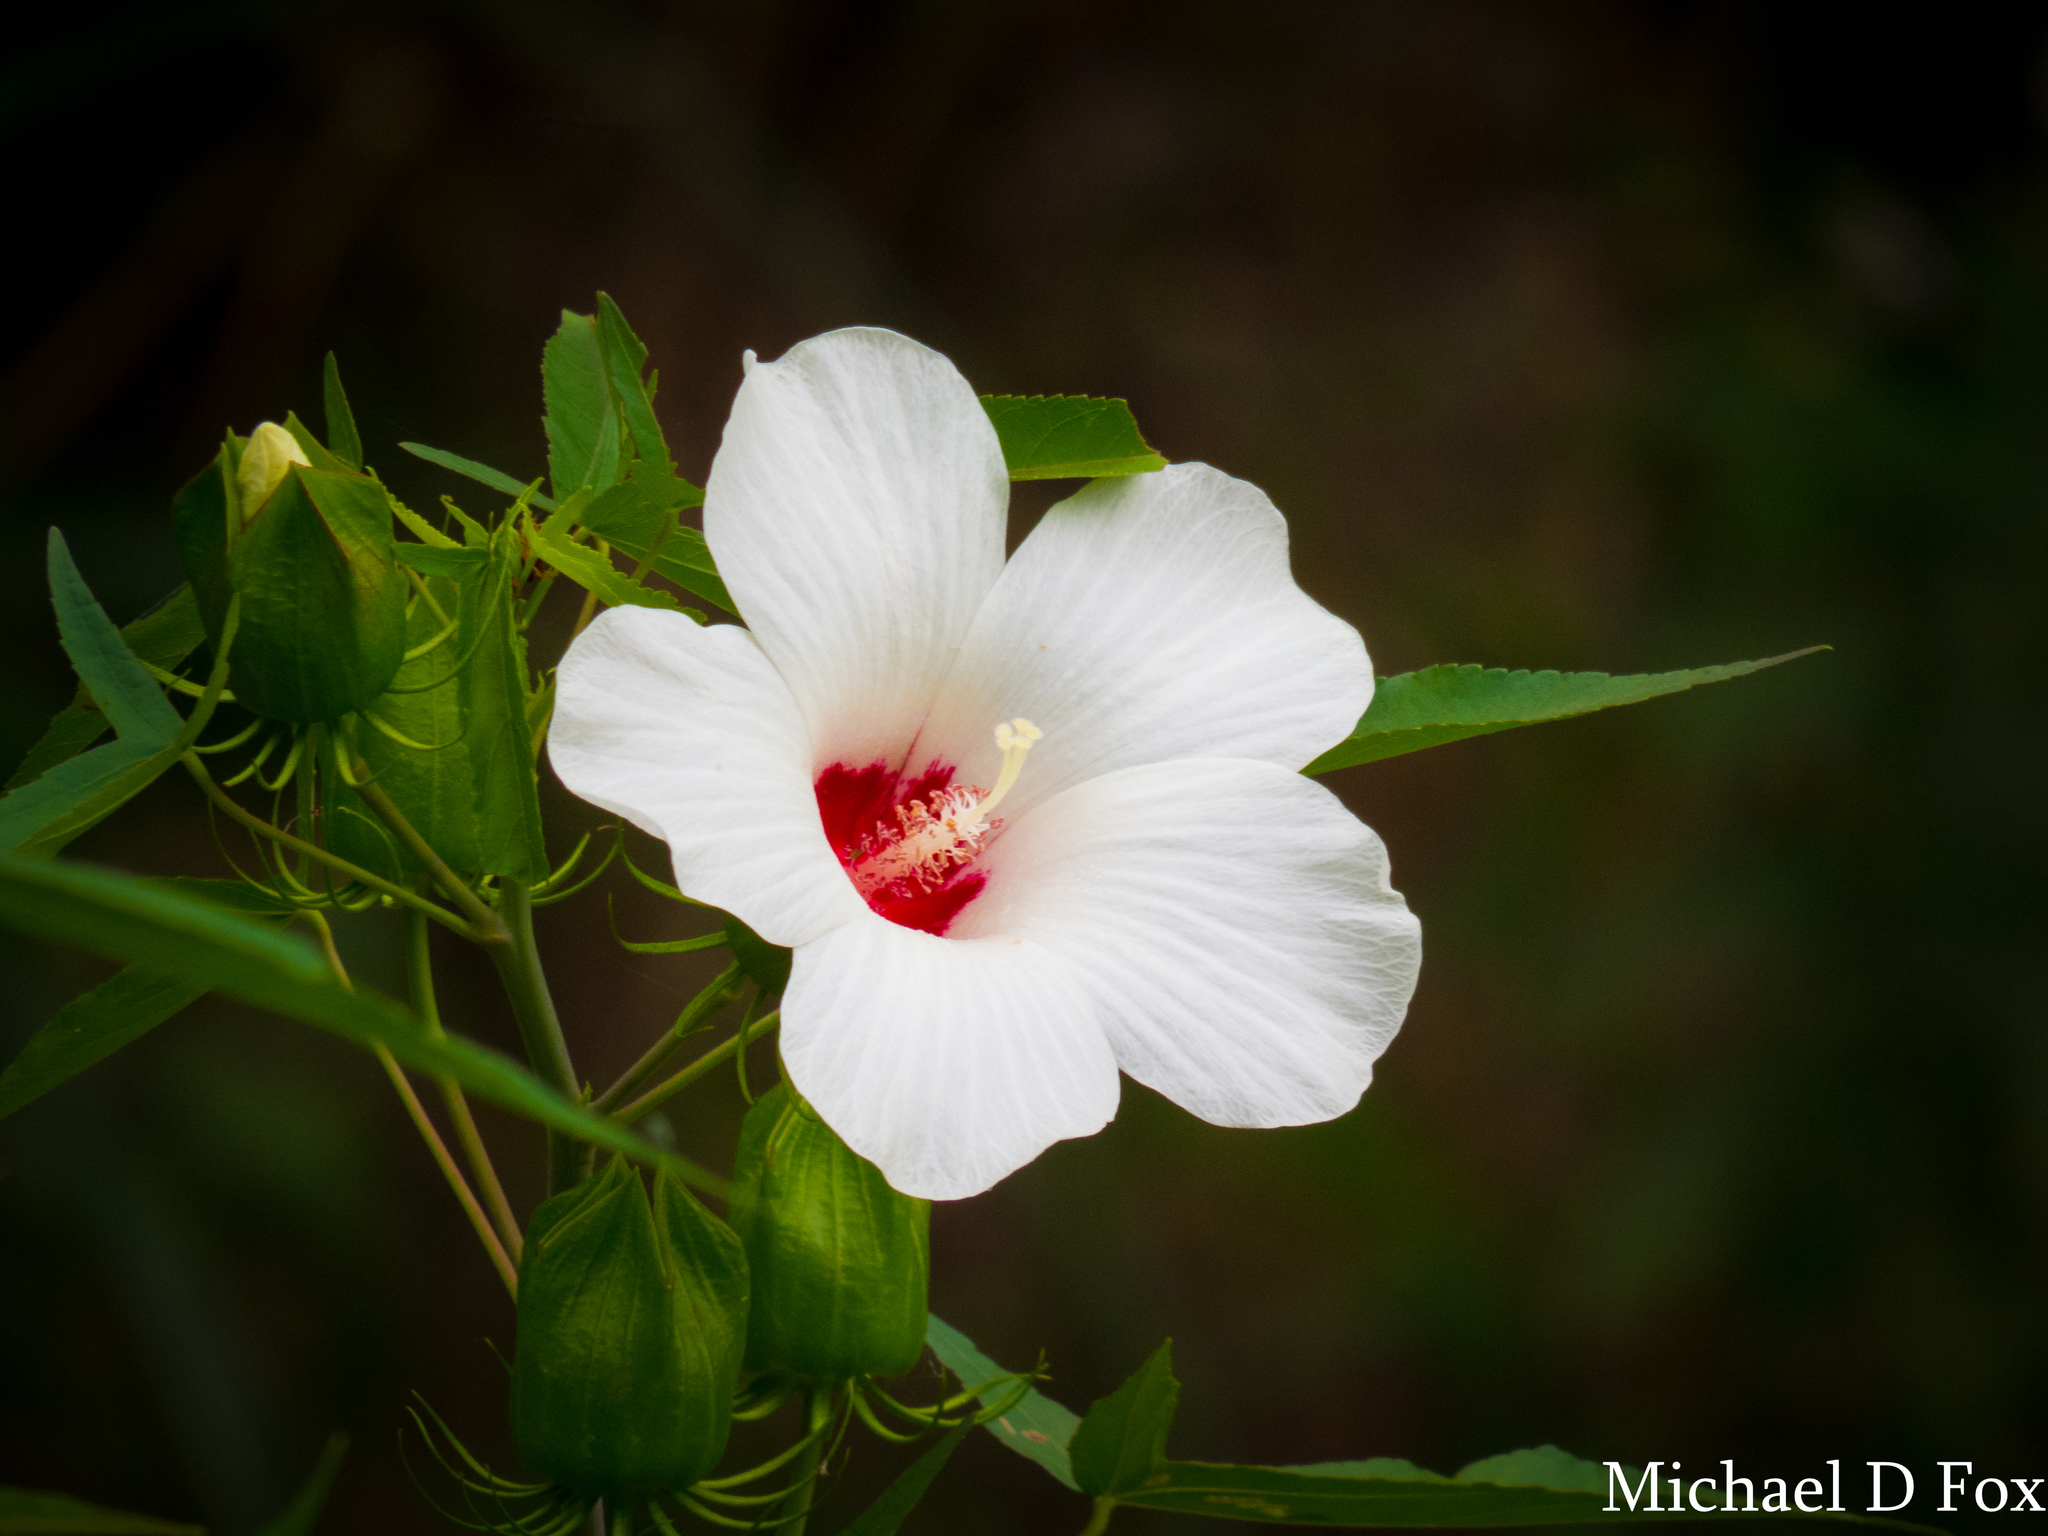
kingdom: Plantae
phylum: Tracheophyta
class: Magnoliopsida
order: Malvales
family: Malvaceae
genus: Hibiscus
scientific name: Hibiscus laevis
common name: Scarlet rose-mallow
